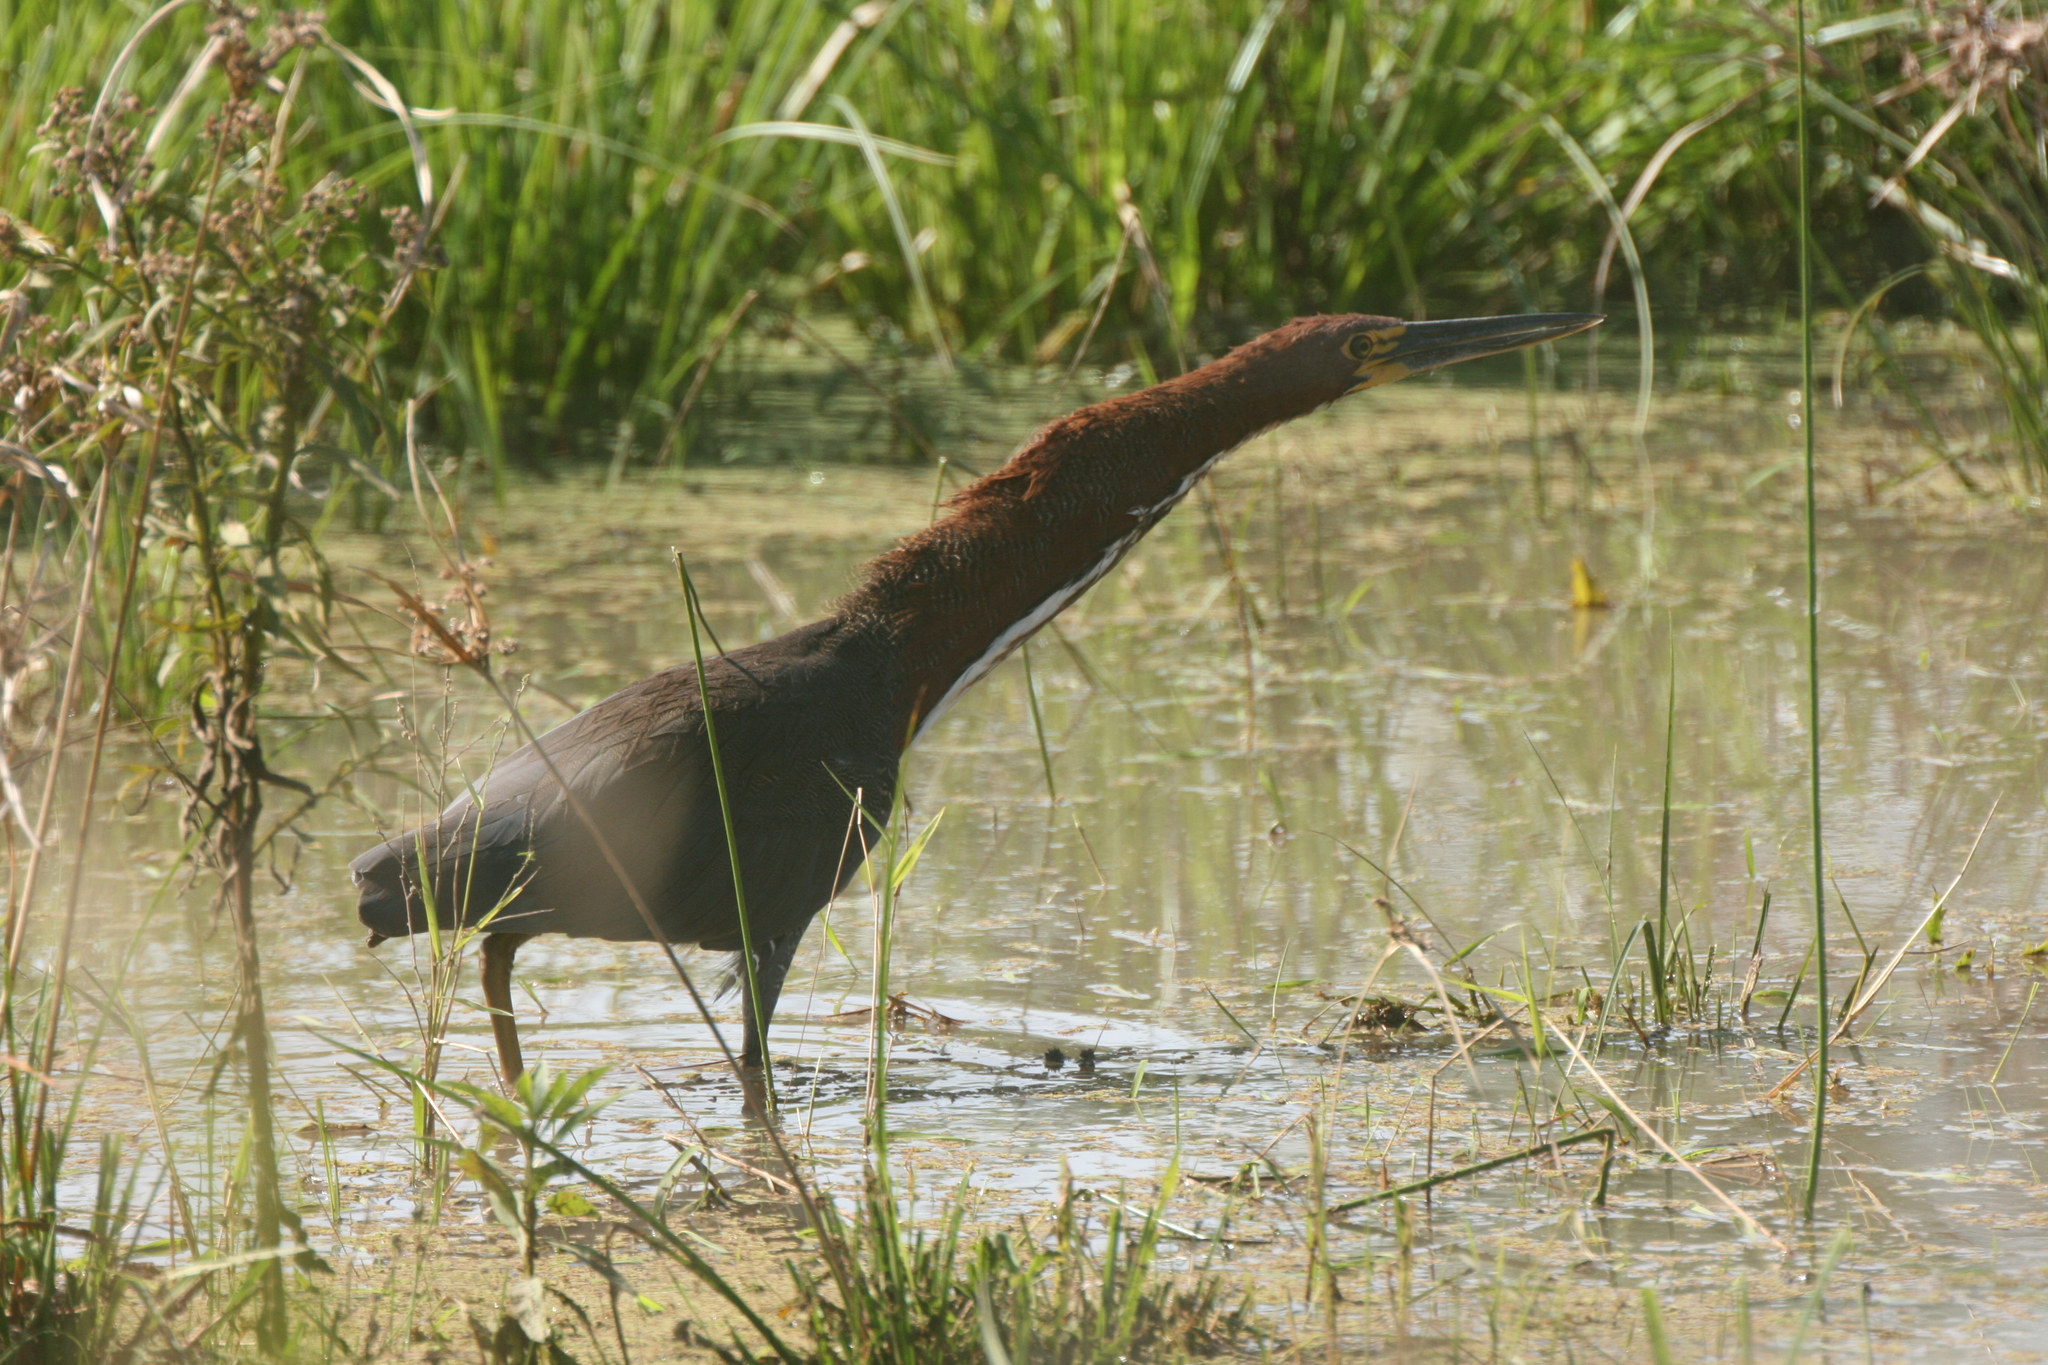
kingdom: Animalia
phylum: Chordata
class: Aves
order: Pelecaniformes
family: Ardeidae
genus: Tigrisoma
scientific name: Tigrisoma lineatum
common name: Rufescent tiger-heron
